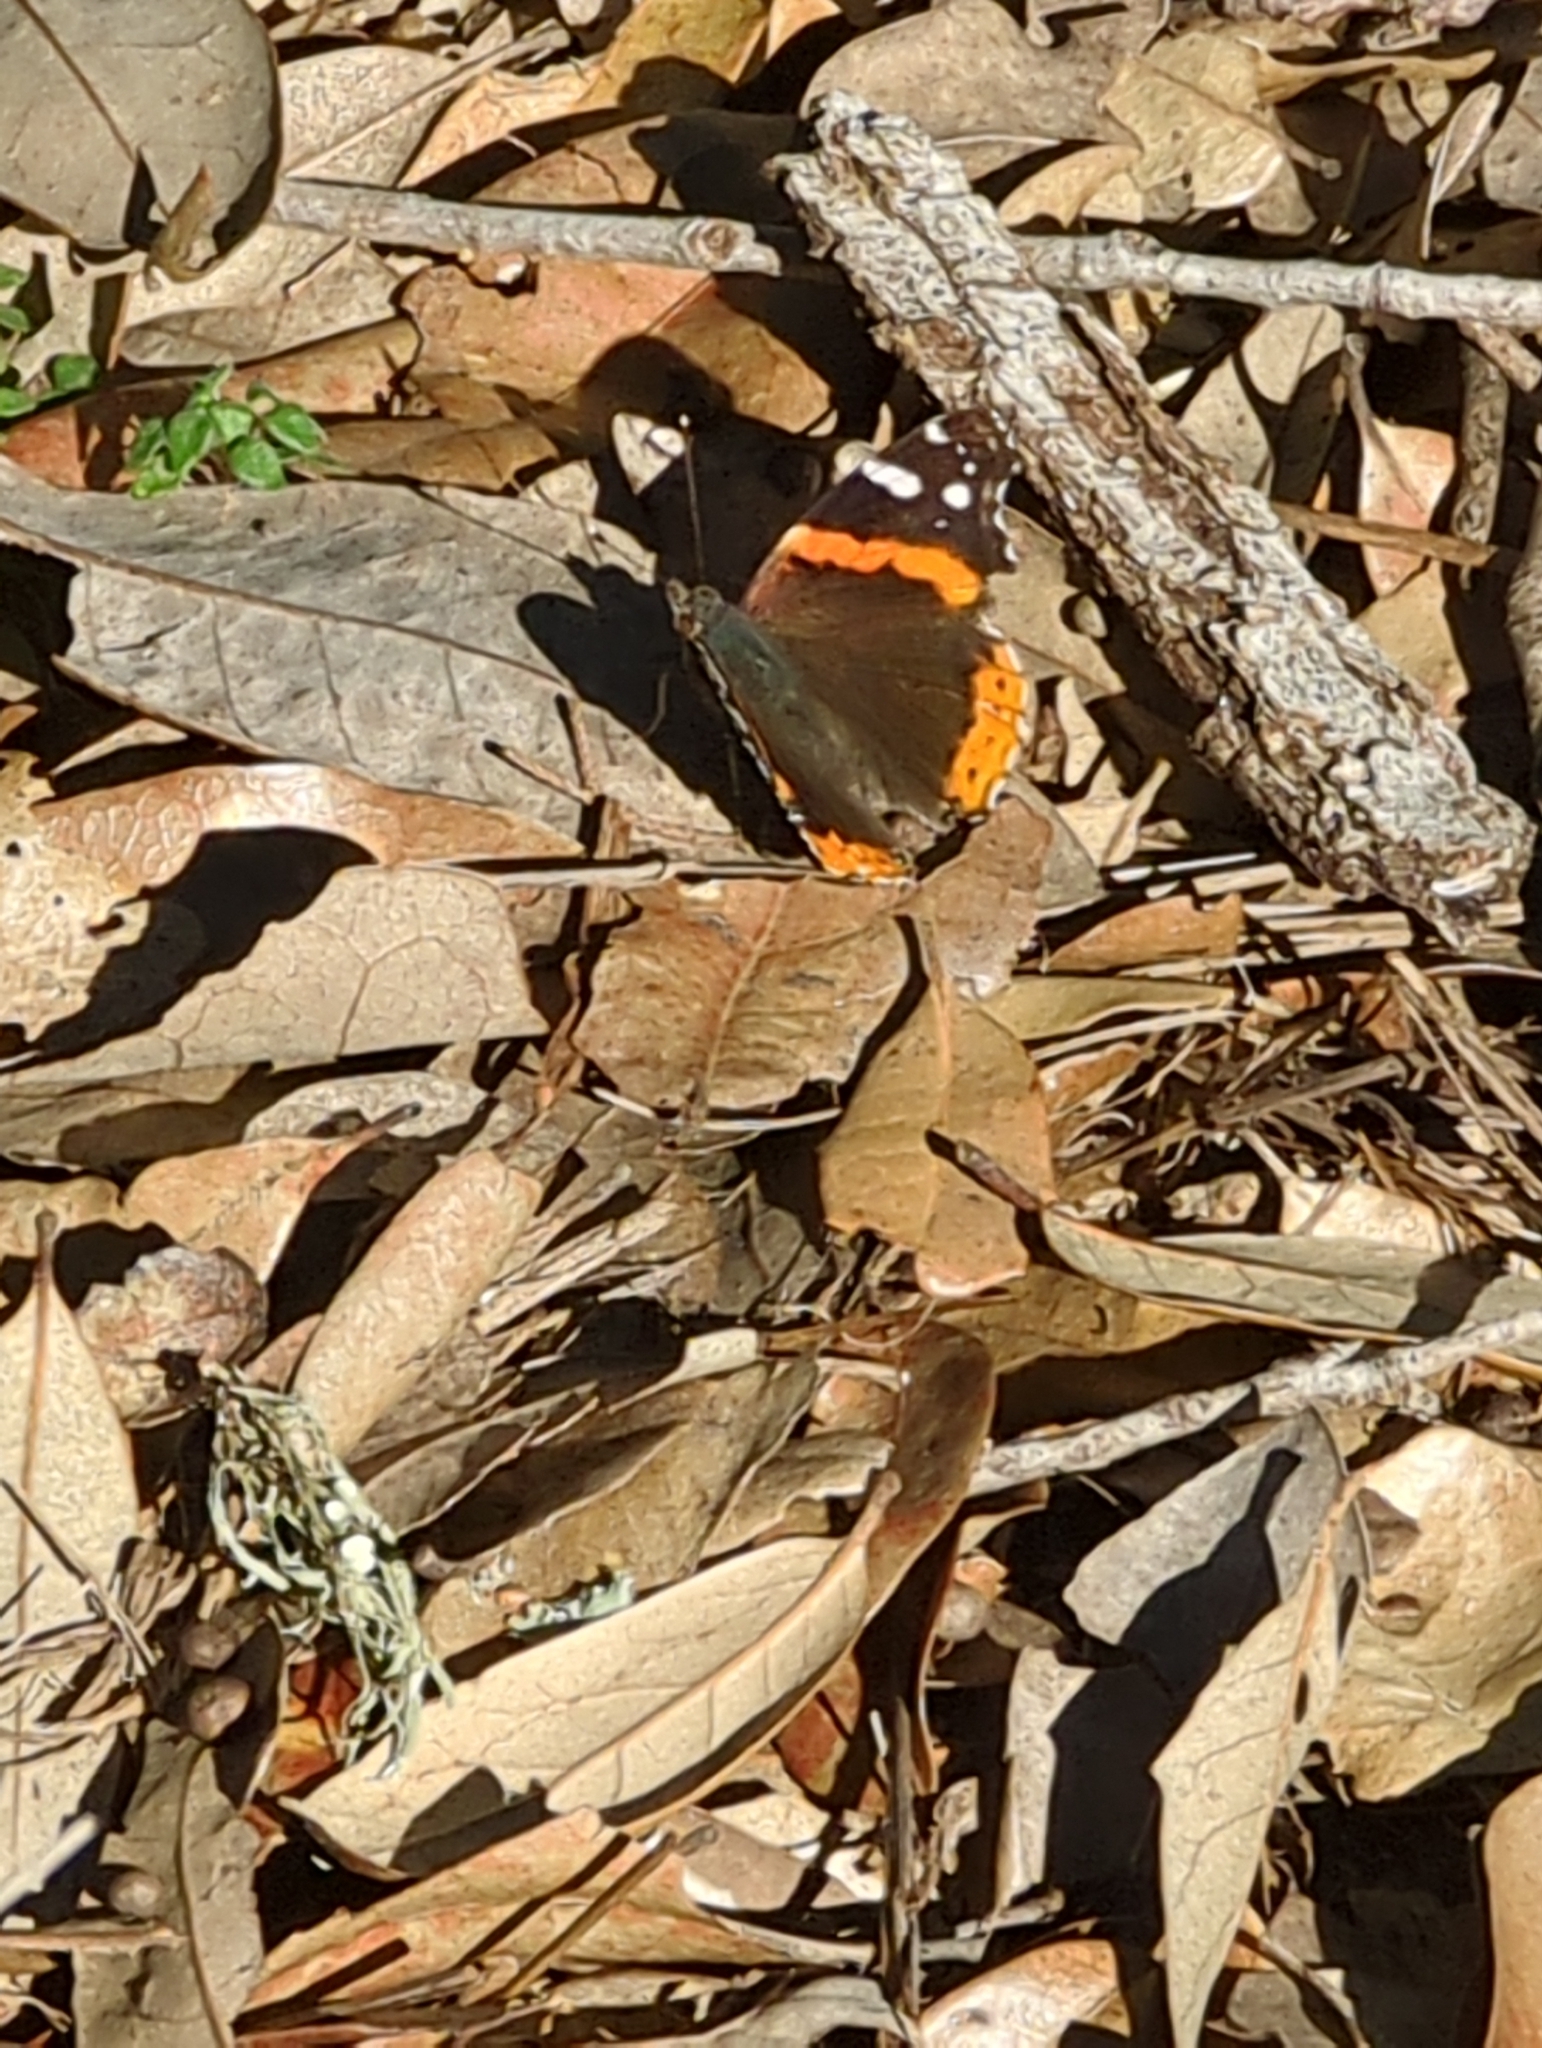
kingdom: Animalia
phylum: Arthropoda
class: Insecta
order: Lepidoptera
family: Nymphalidae
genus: Vanessa
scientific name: Vanessa atalanta
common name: Red admiral
